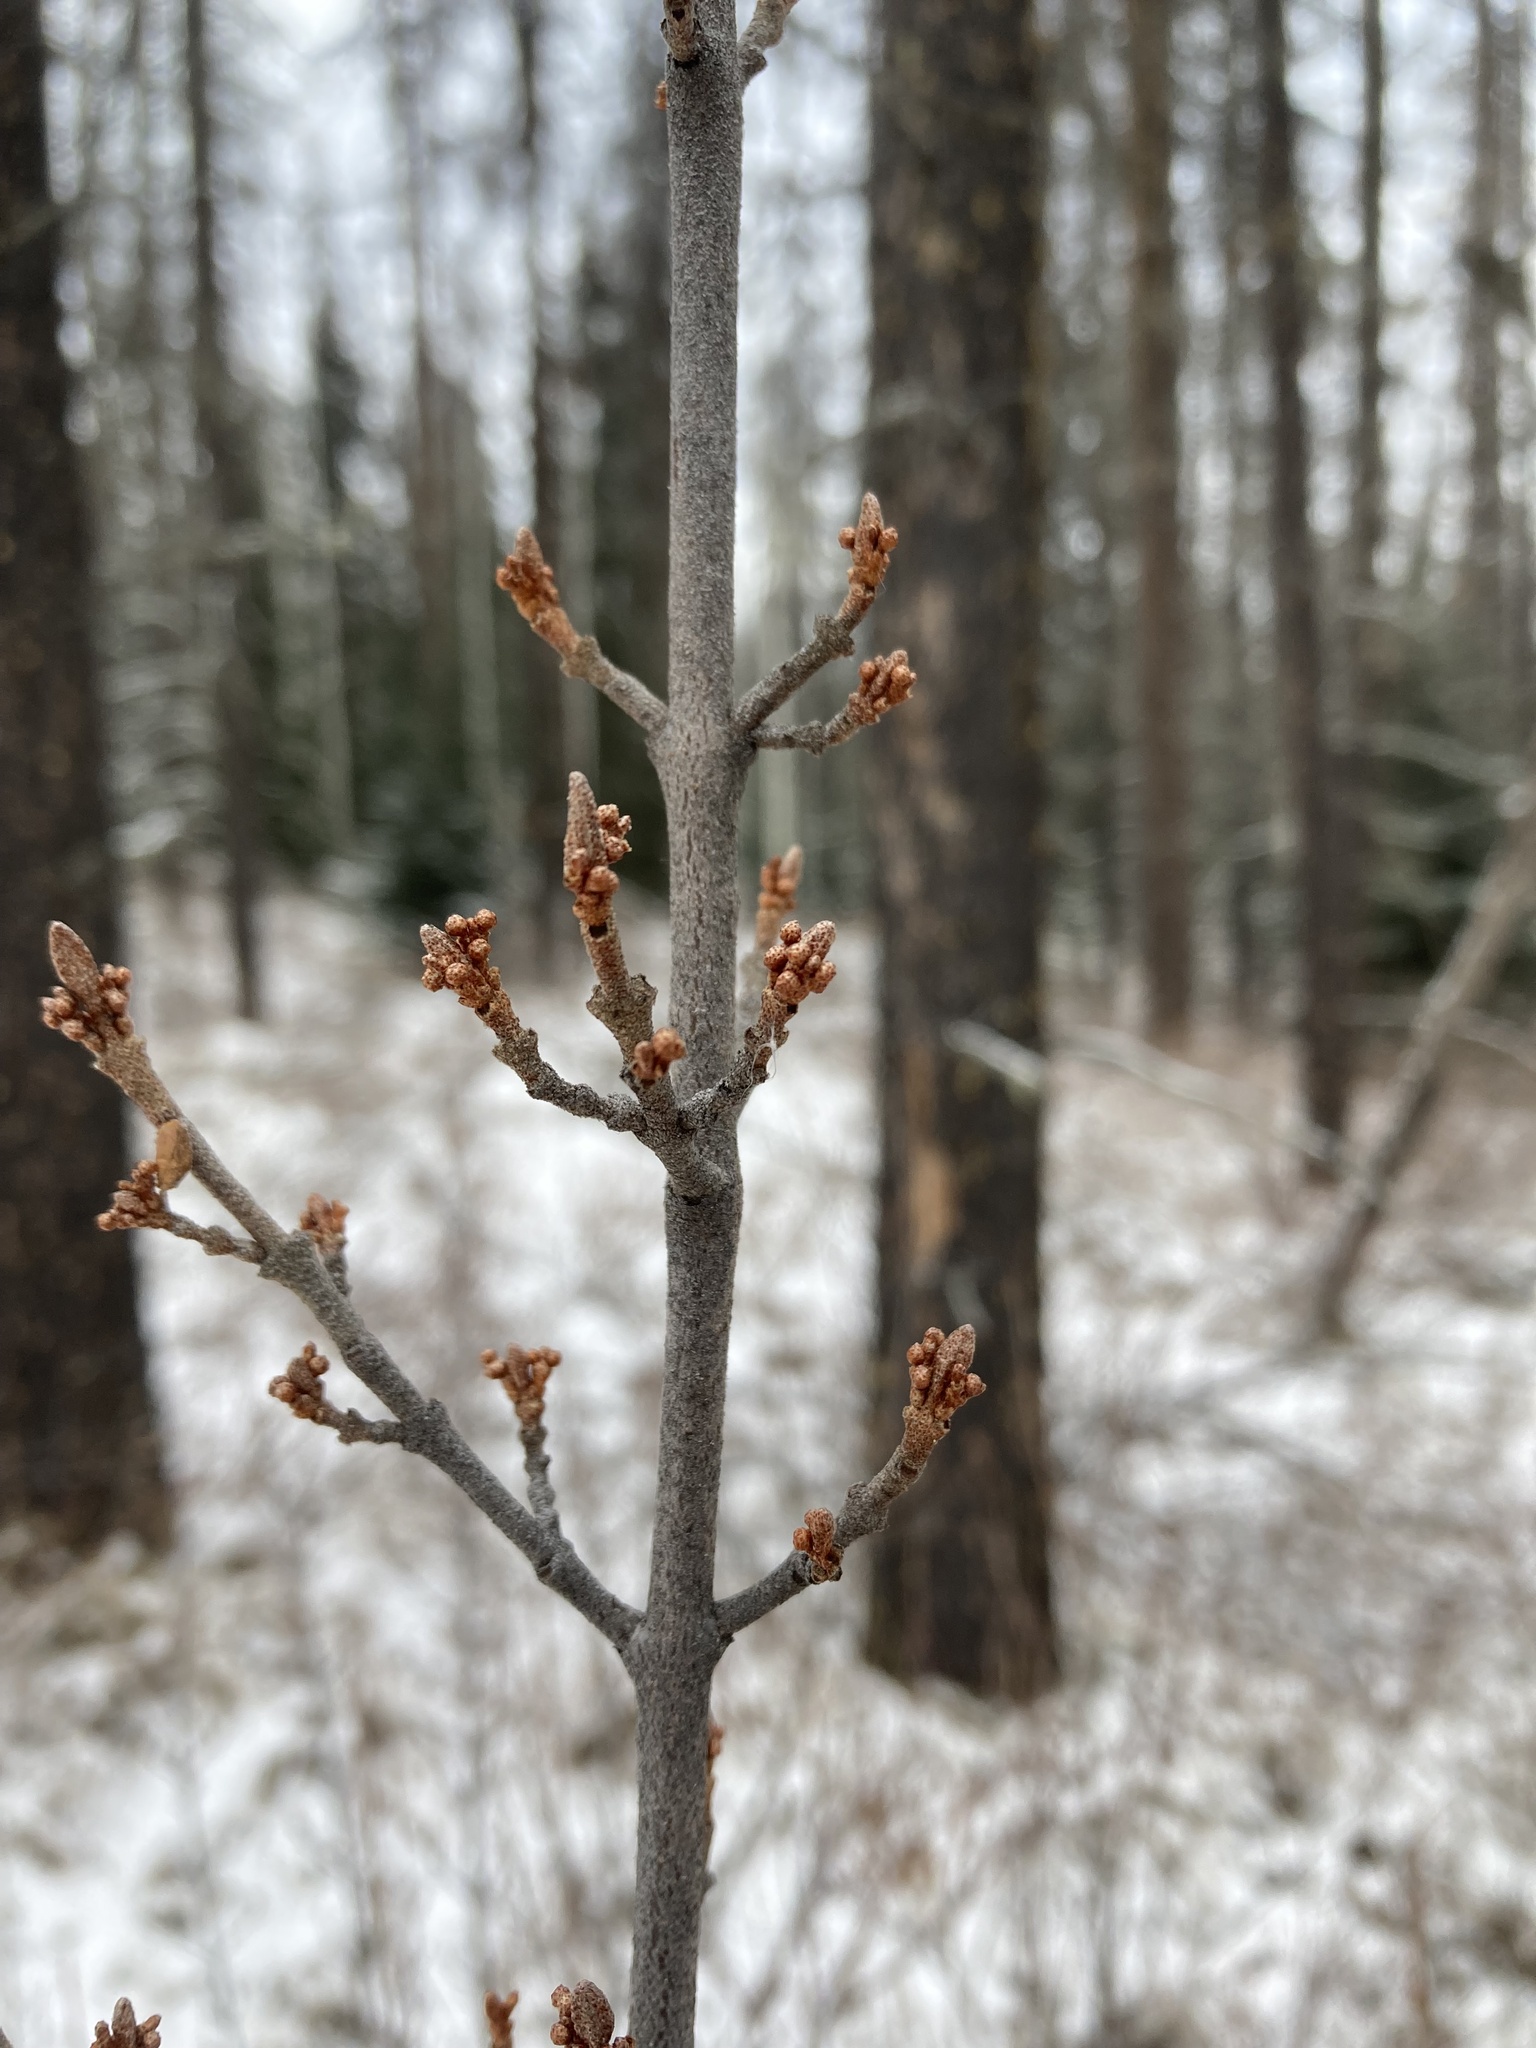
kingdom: Plantae
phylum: Tracheophyta
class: Magnoliopsida
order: Rosales
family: Elaeagnaceae
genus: Shepherdia
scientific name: Shepherdia canadensis
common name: Soapberry
